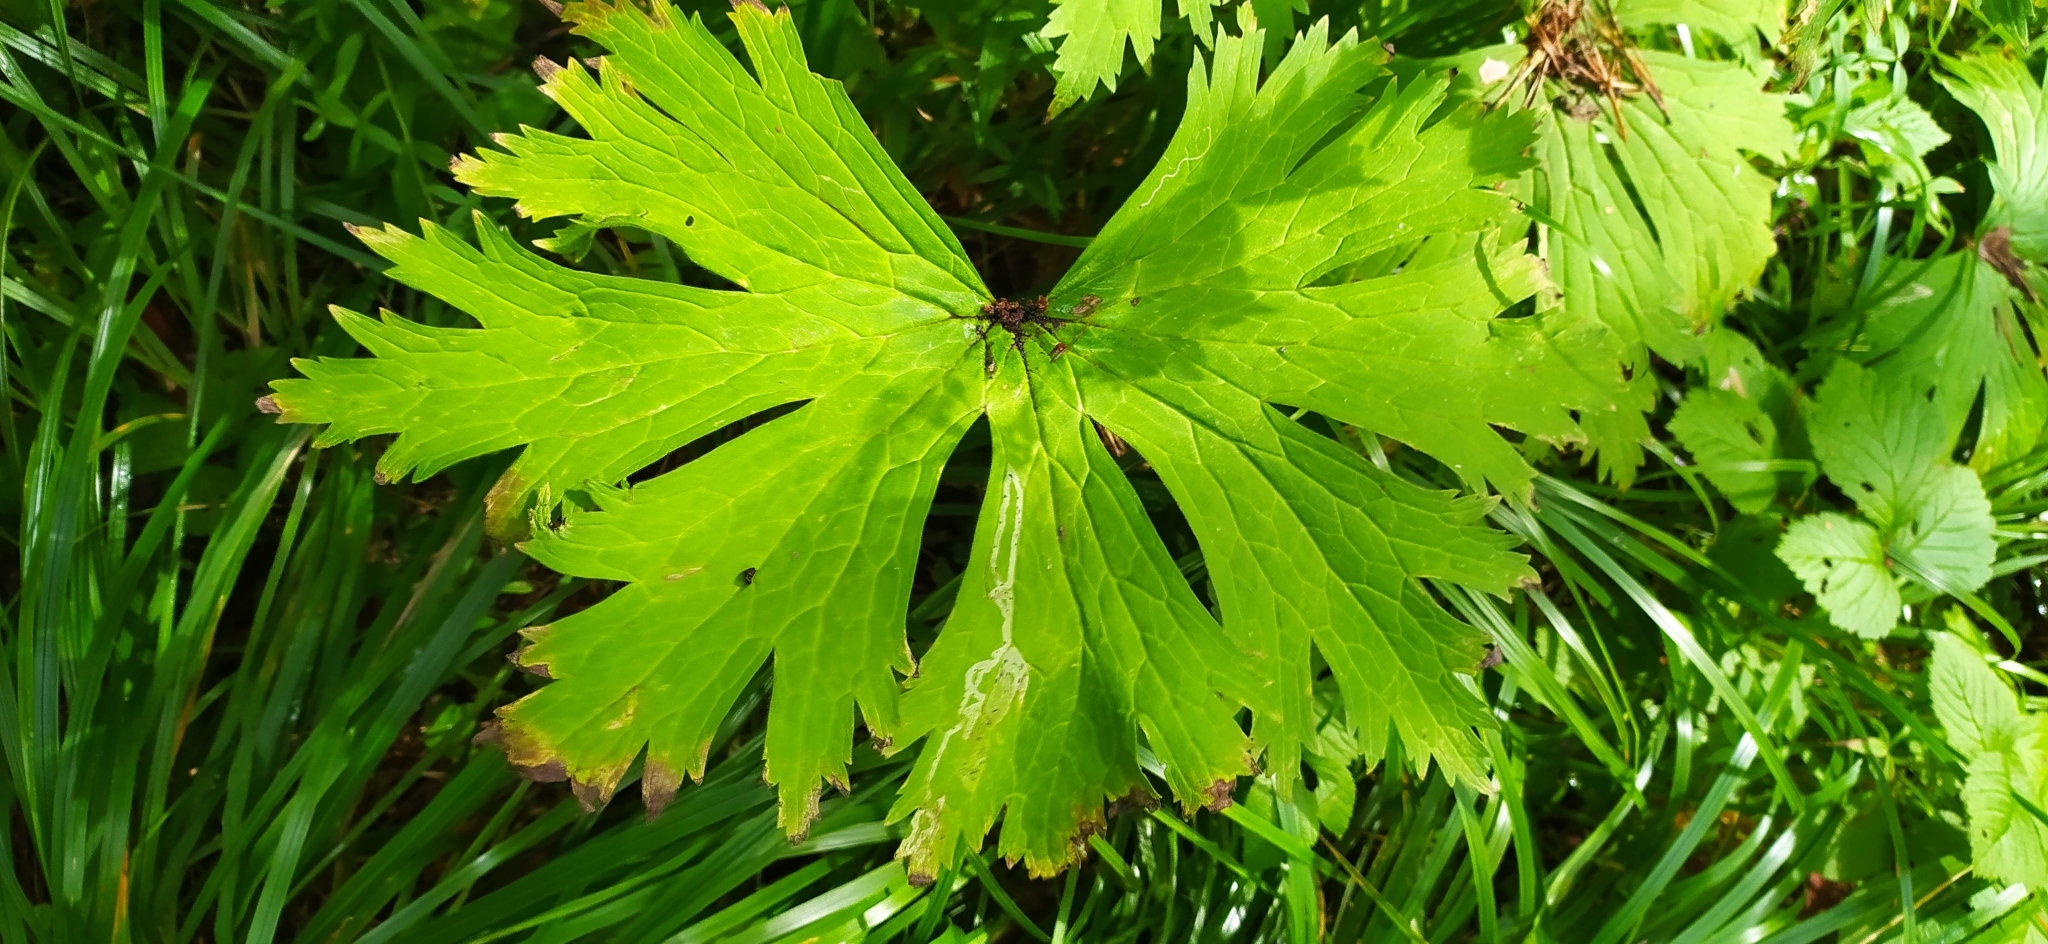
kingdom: Plantae
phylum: Tracheophyta
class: Magnoliopsida
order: Ranunculales
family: Ranunculaceae
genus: Aconitum
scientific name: Aconitum septentrionale
